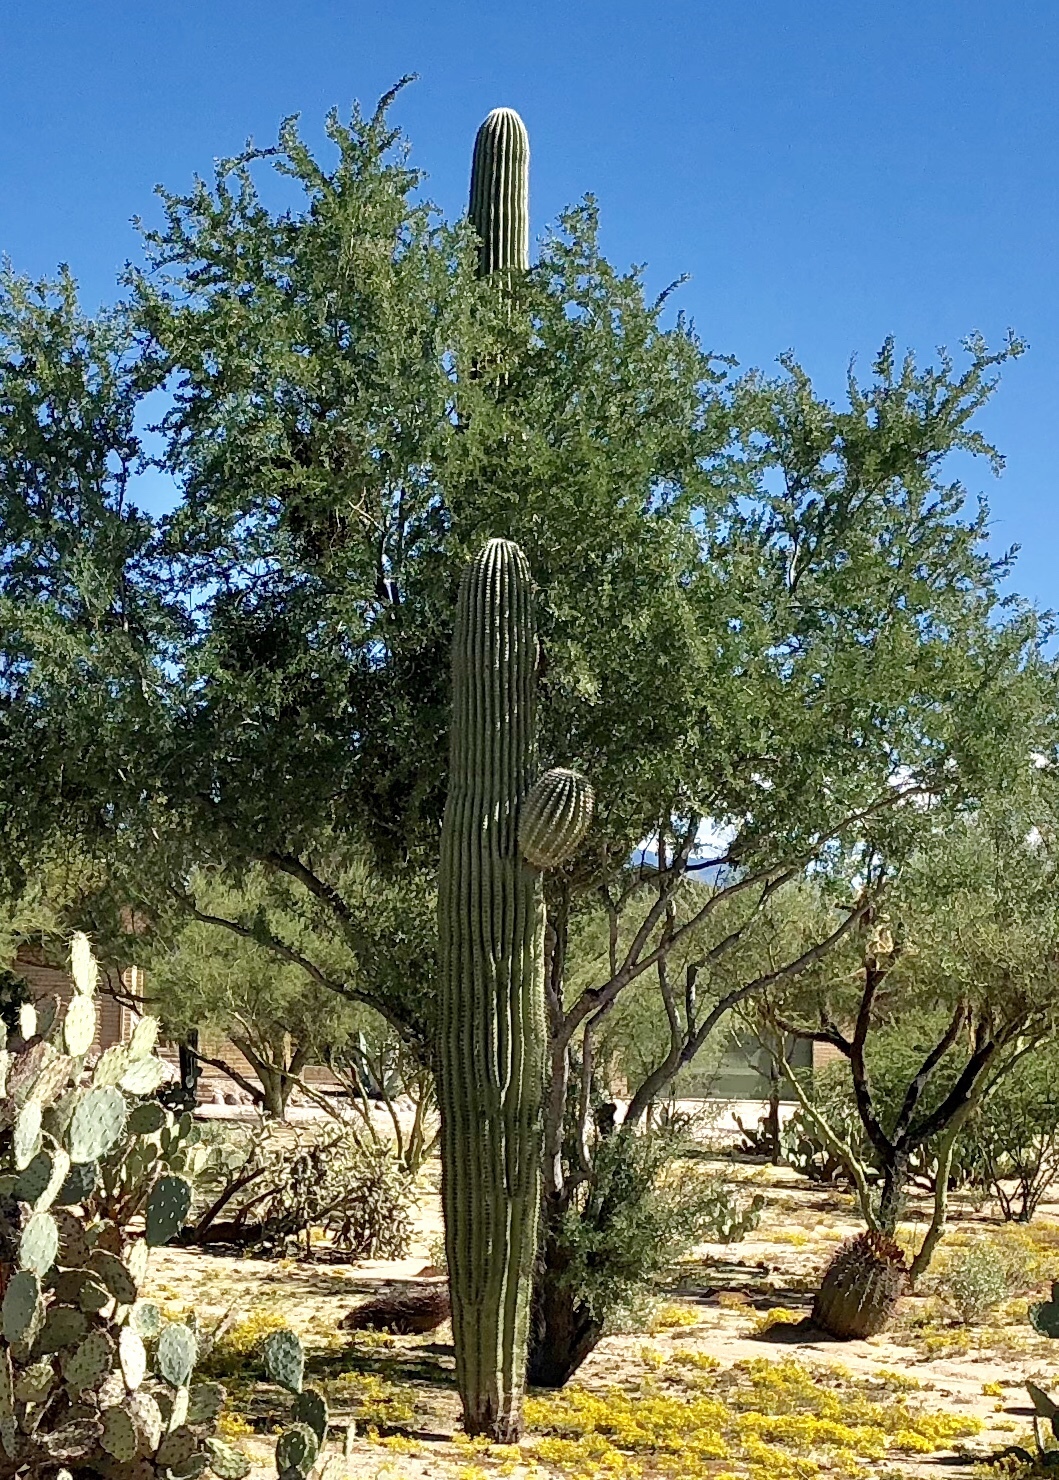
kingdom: Plantae
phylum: Tracheophyta
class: Magnoliopsida
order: Caryophyllales
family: Cactaceae
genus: Carnegiea
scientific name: Carnegiea gigantea
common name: Saguaro
